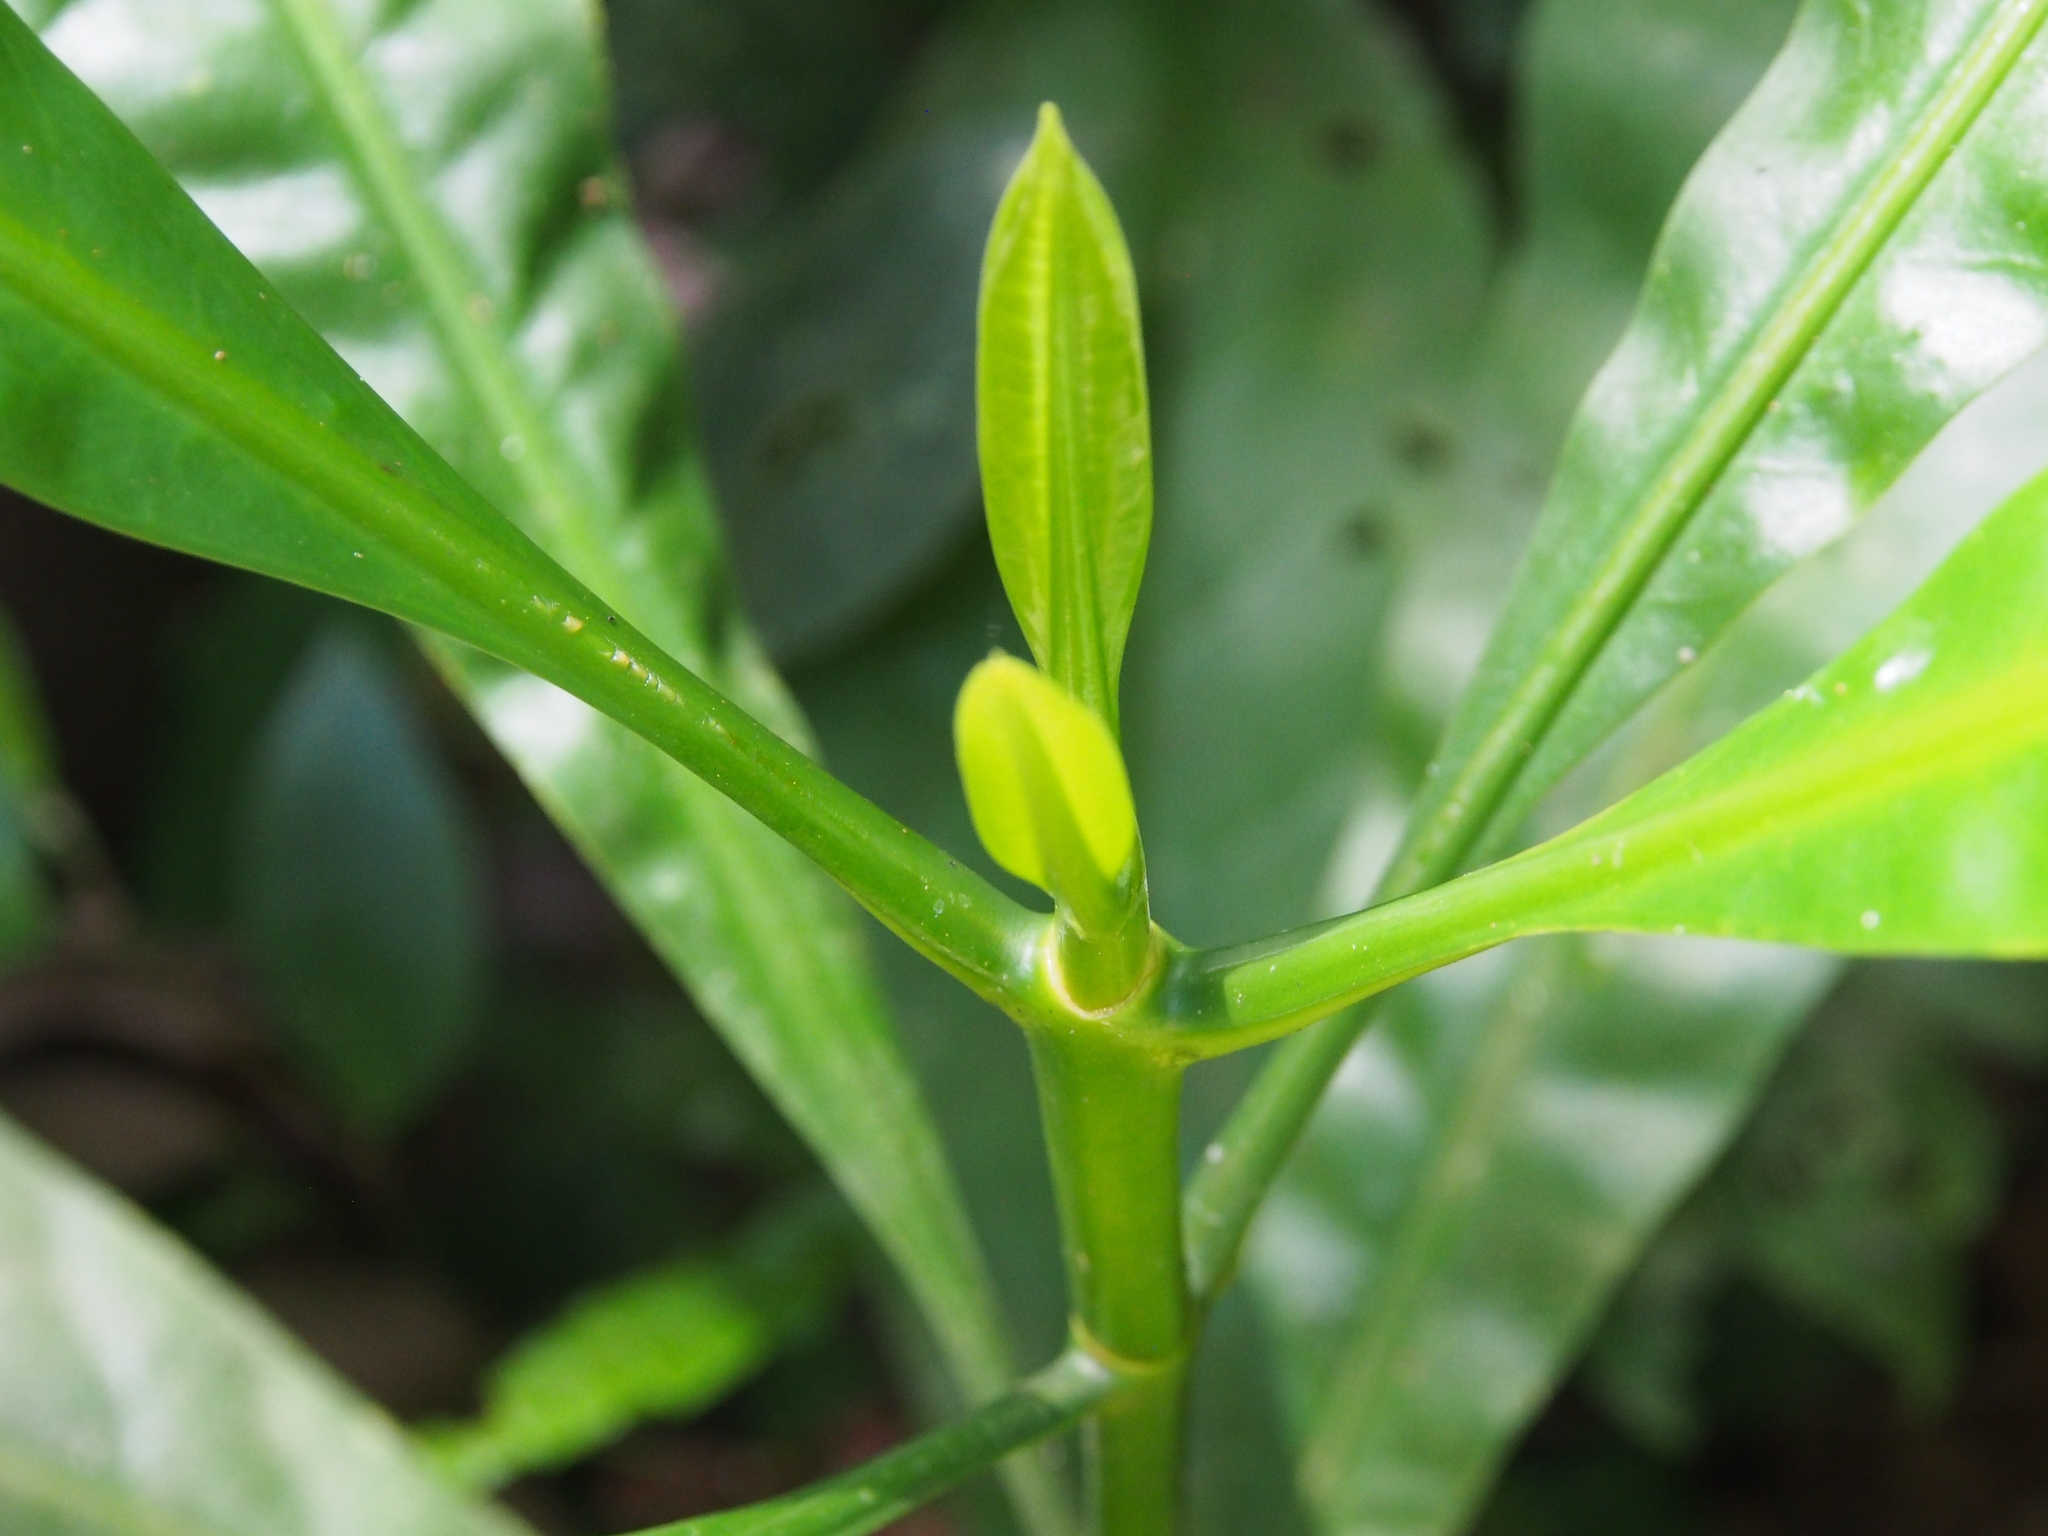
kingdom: Plantae
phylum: Tracheophyta
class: Magnoliopsida
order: Gentianales
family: Gentianaceae
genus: Potalia
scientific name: Potalia turbinata
